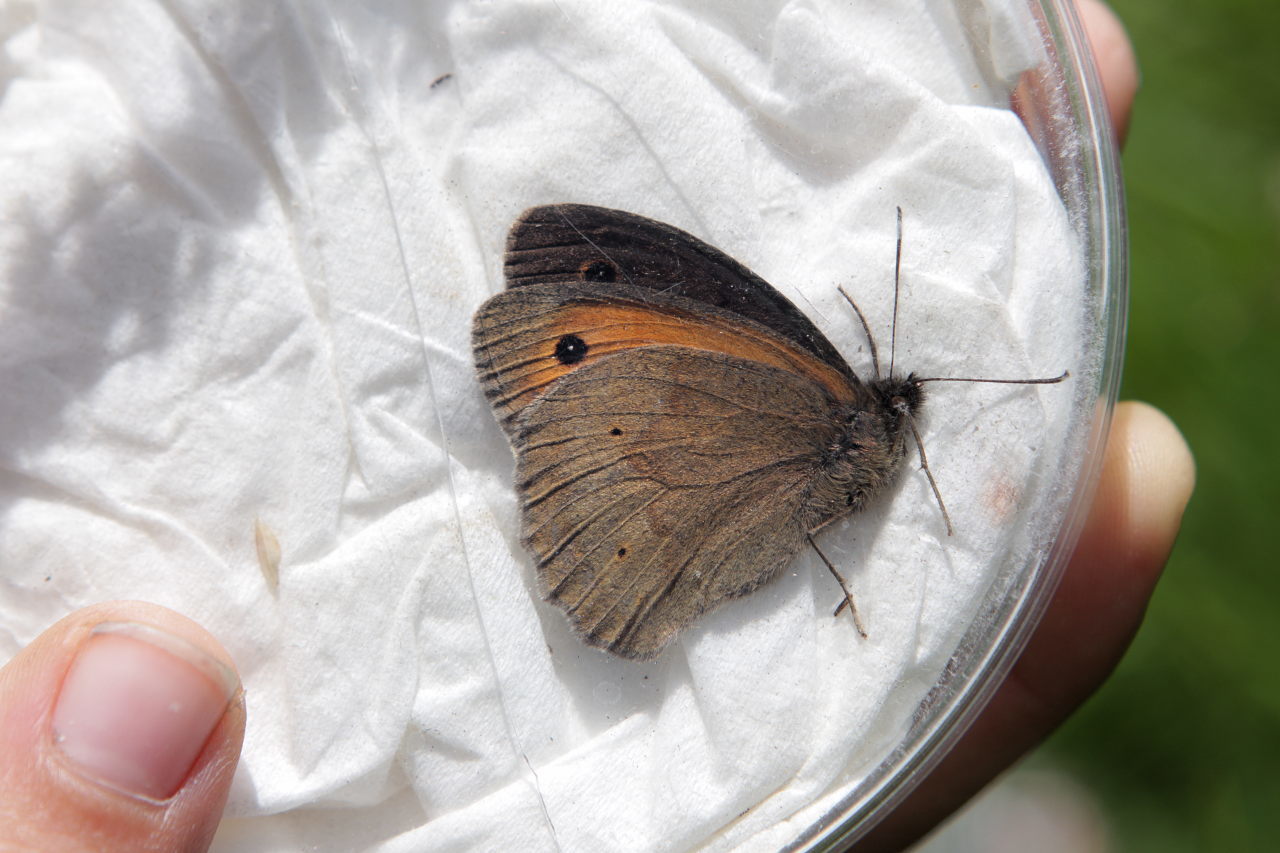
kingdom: Animalia
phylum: Arthropoda
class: Insecta
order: Lepidoptera
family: Nymphalidae
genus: Maniola
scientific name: Maniola jurtina
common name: Meadow brown
